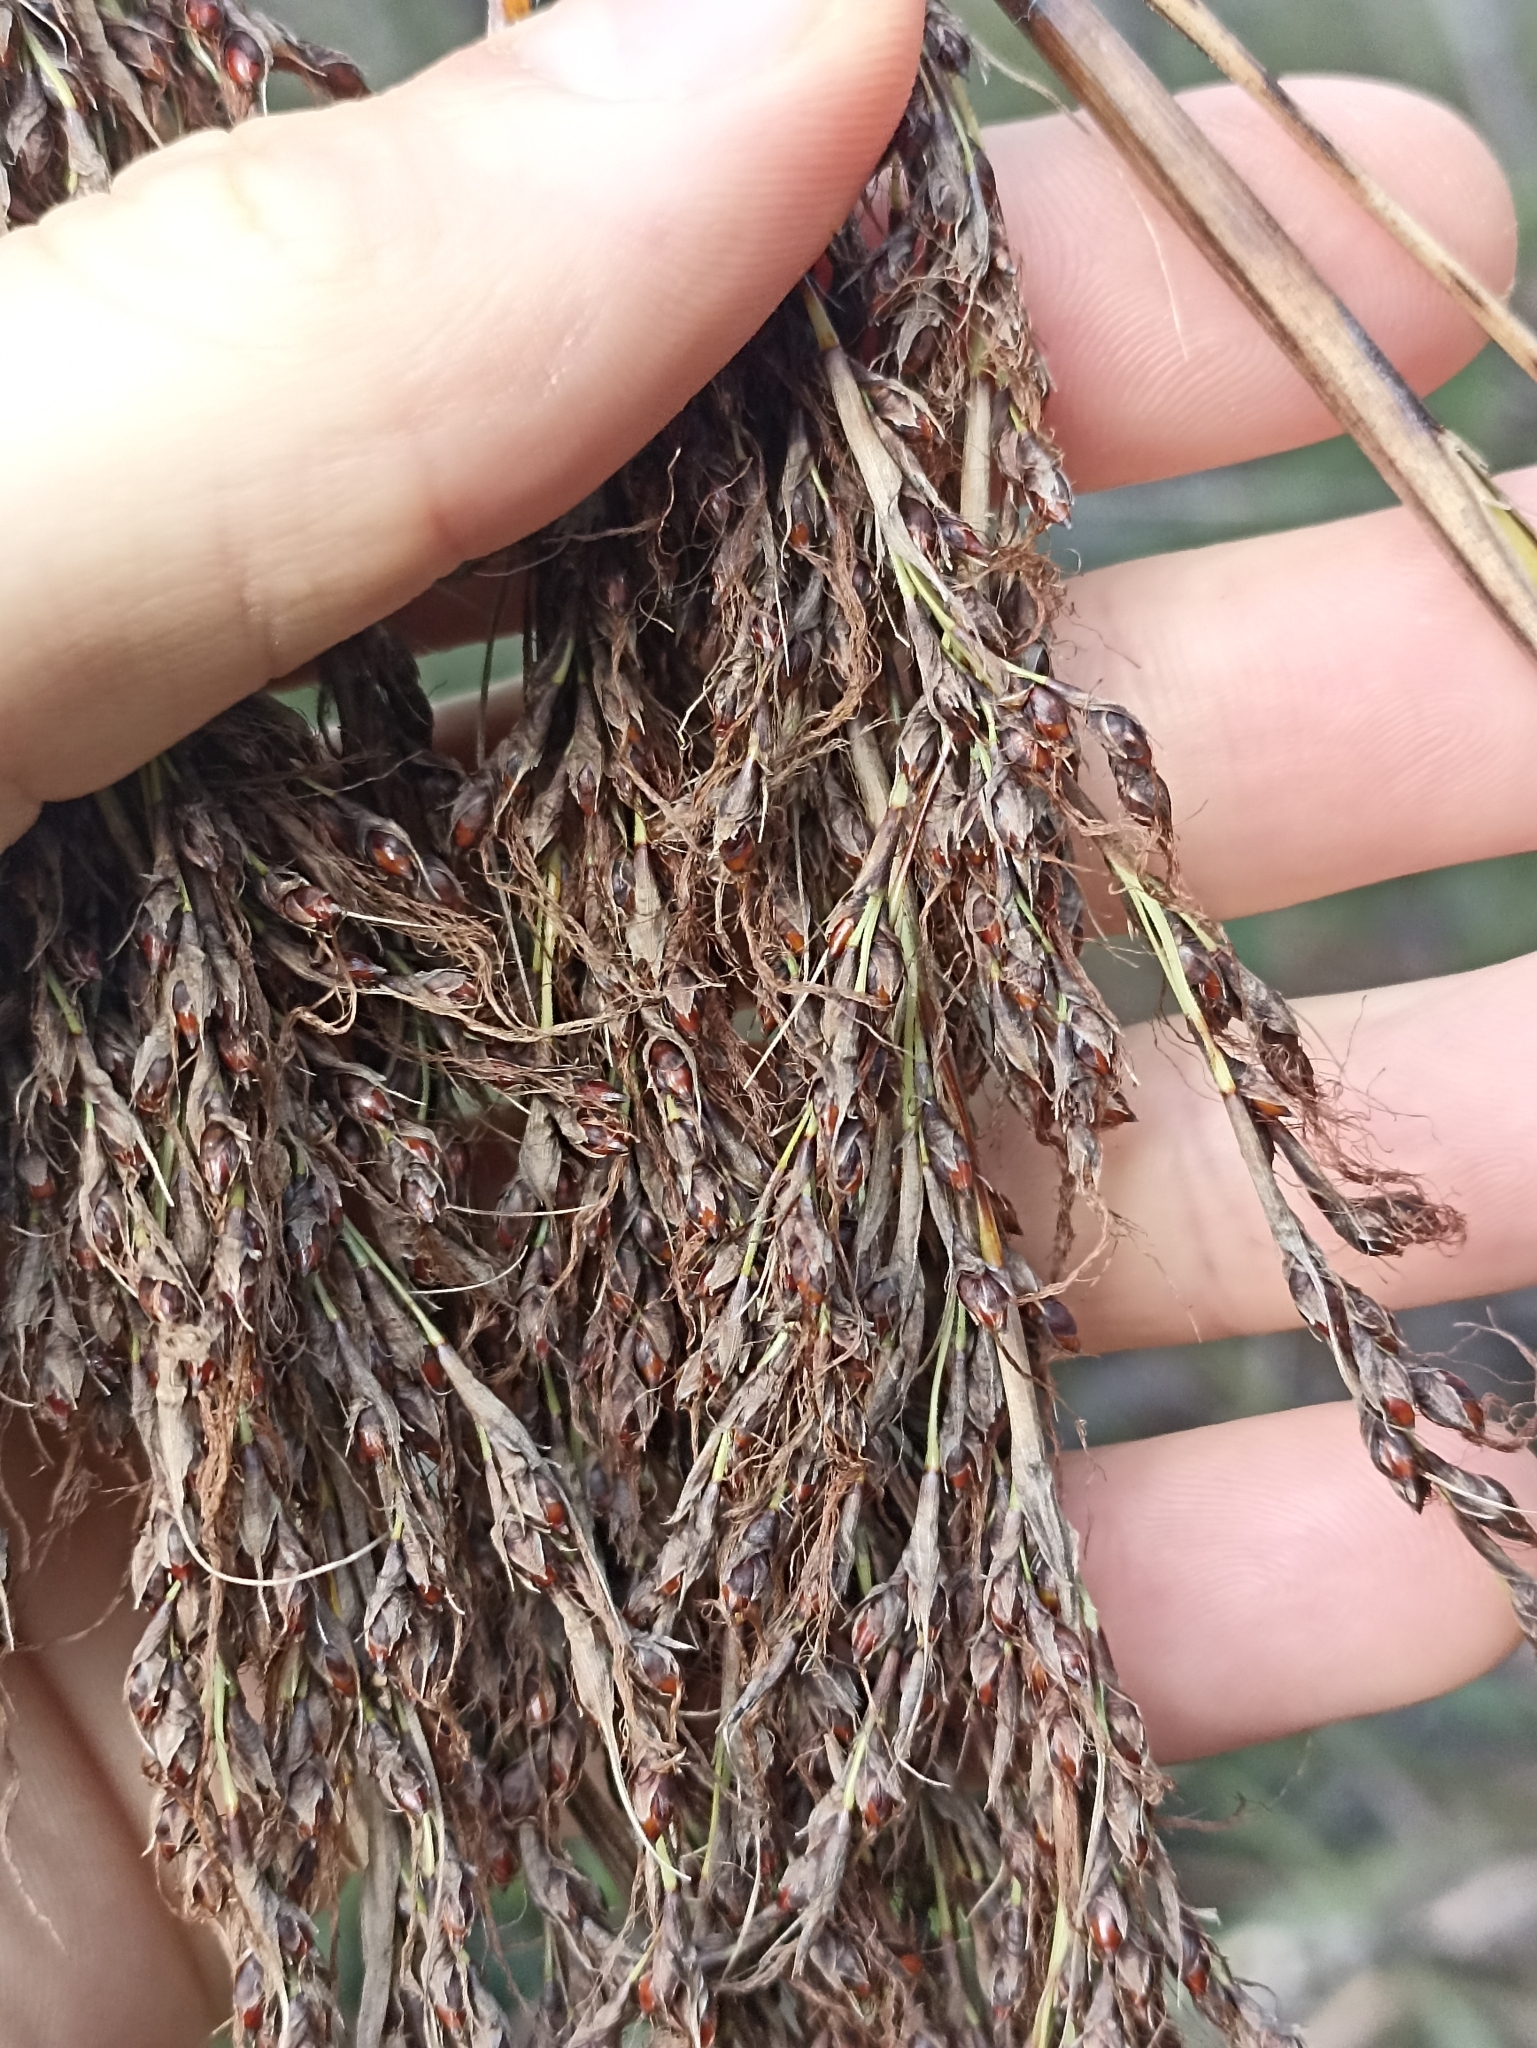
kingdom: Plantae
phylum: Tracheophyta
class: Liliopsida
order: Poales
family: Cyperaceae
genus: Gahnia
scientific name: Gahnia xanthocarpa
